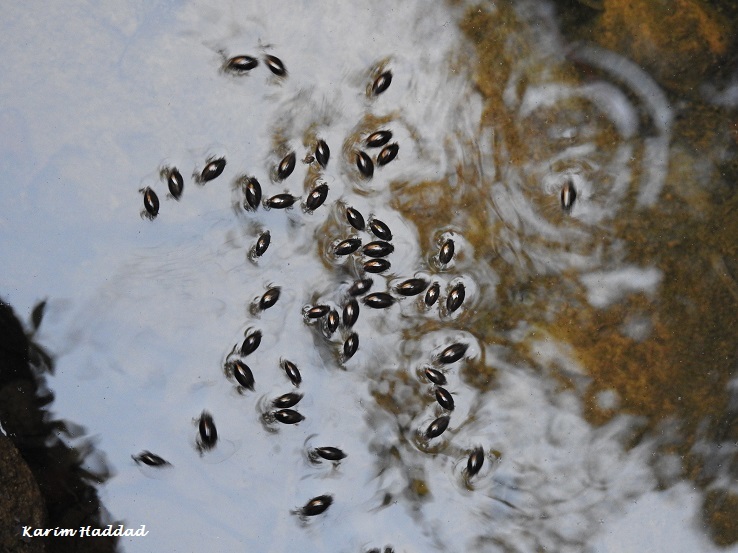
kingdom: Animalia
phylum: Arthropoda
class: Insecta
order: Coleoptera
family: Gyrinidae
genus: Gyrinus
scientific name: Gyrinus
